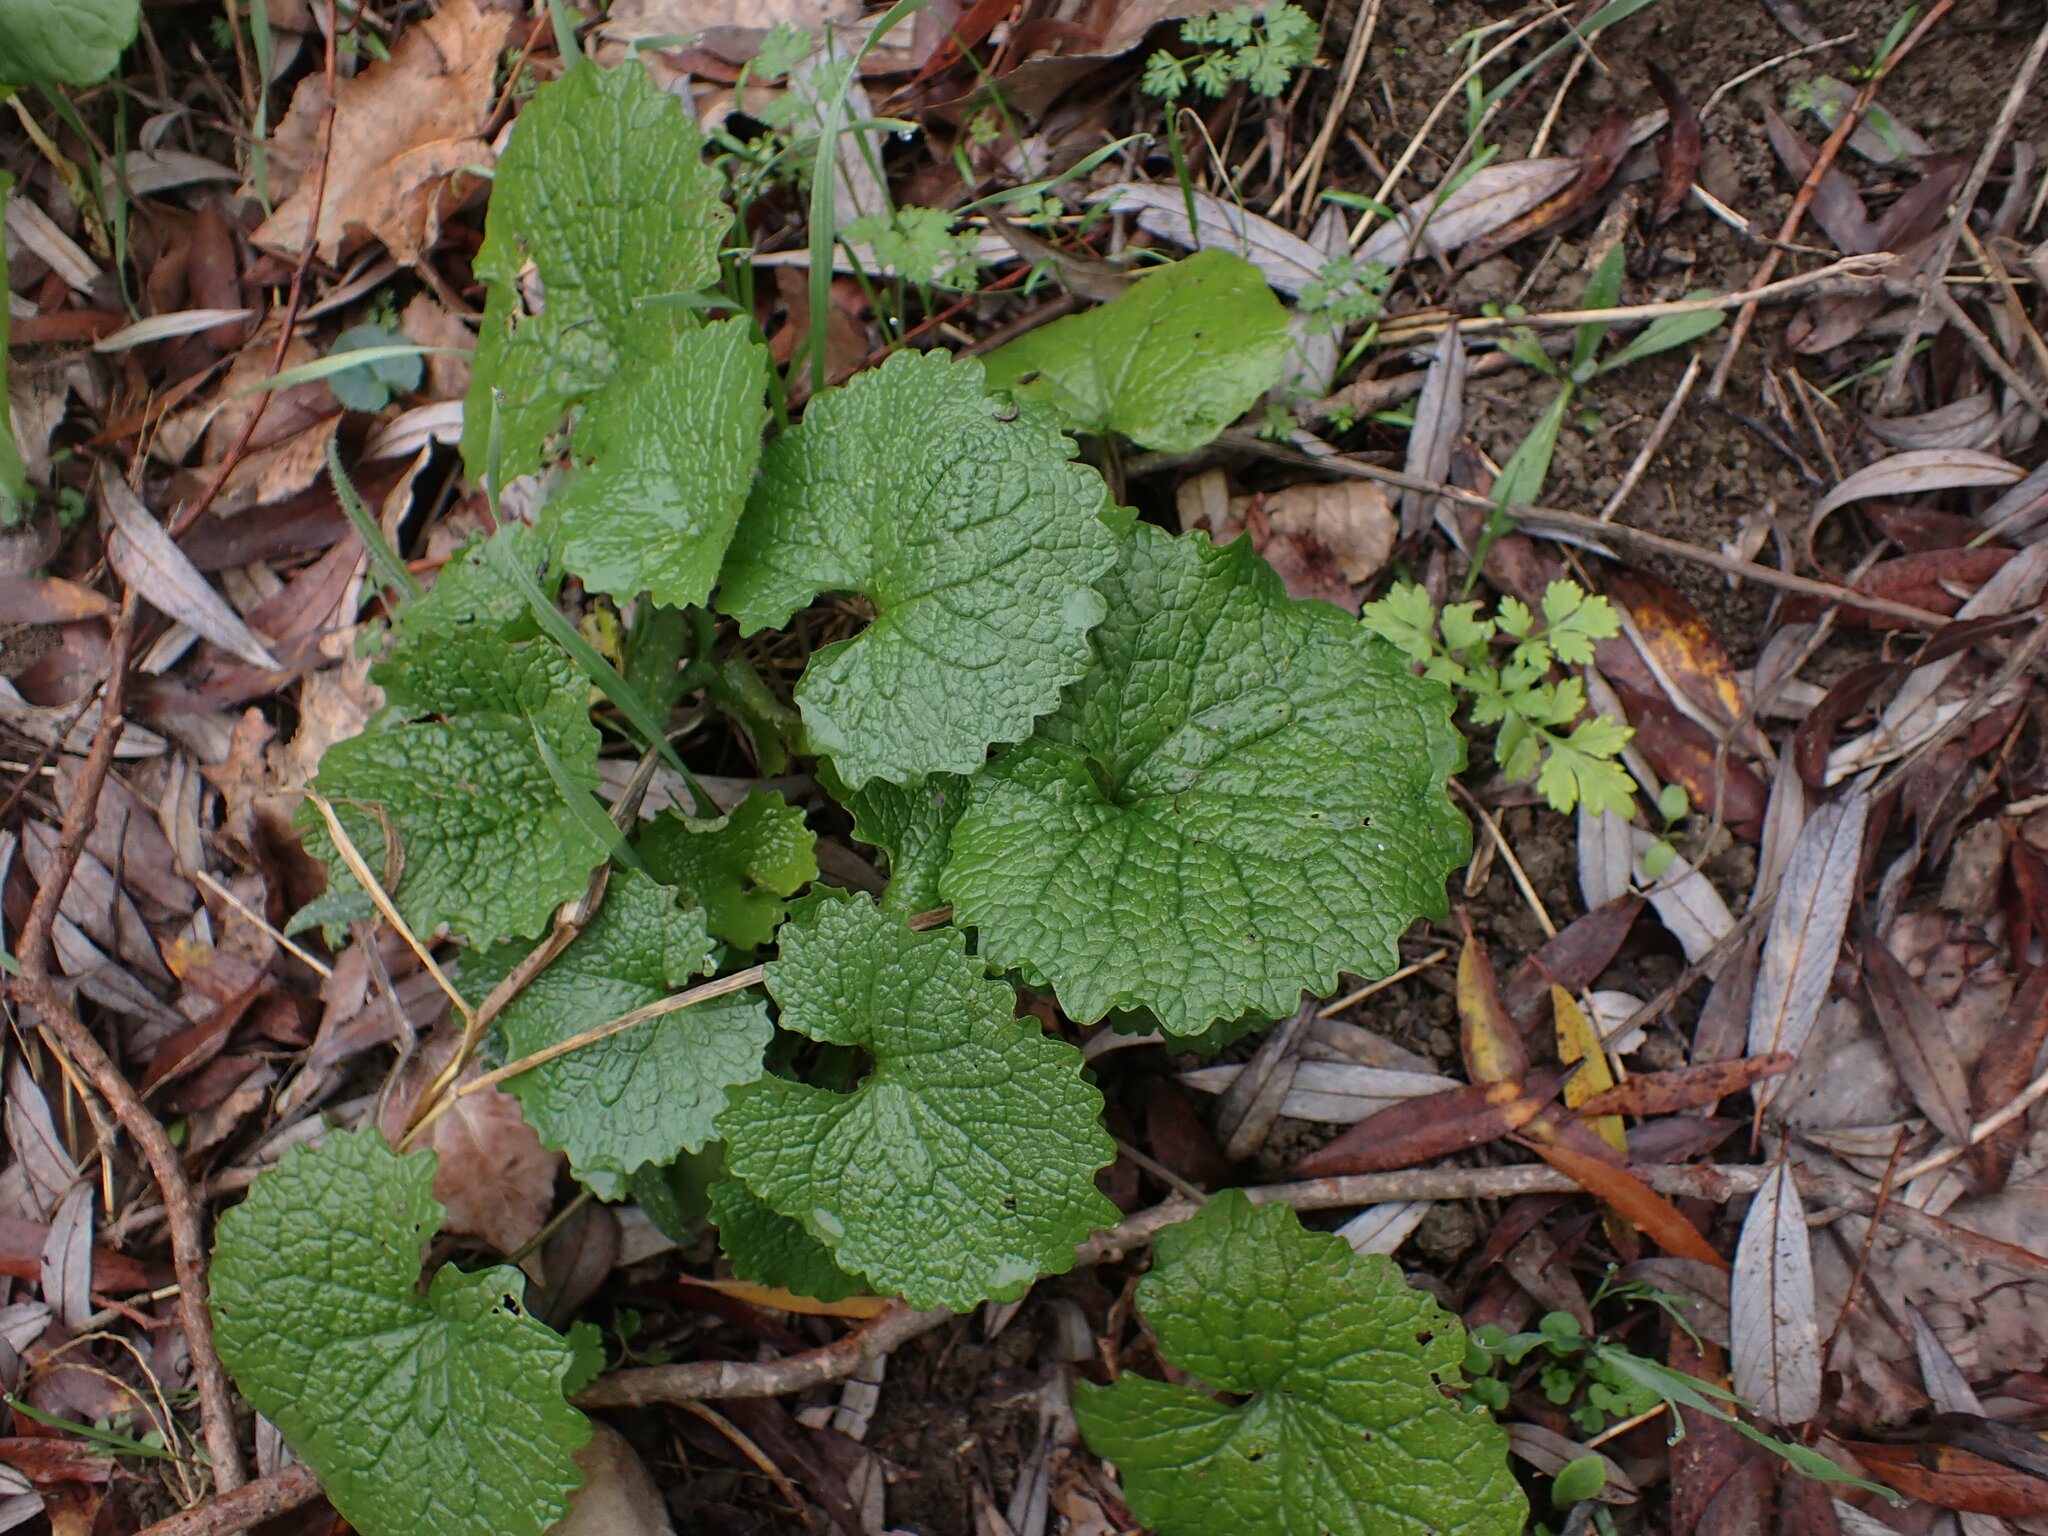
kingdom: Plantae
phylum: Tracheophyta
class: Magnoliopsida
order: Brassicales
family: Brassicaceae
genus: Alliaria
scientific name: Alliaria petiolata
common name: Garlic mustard
